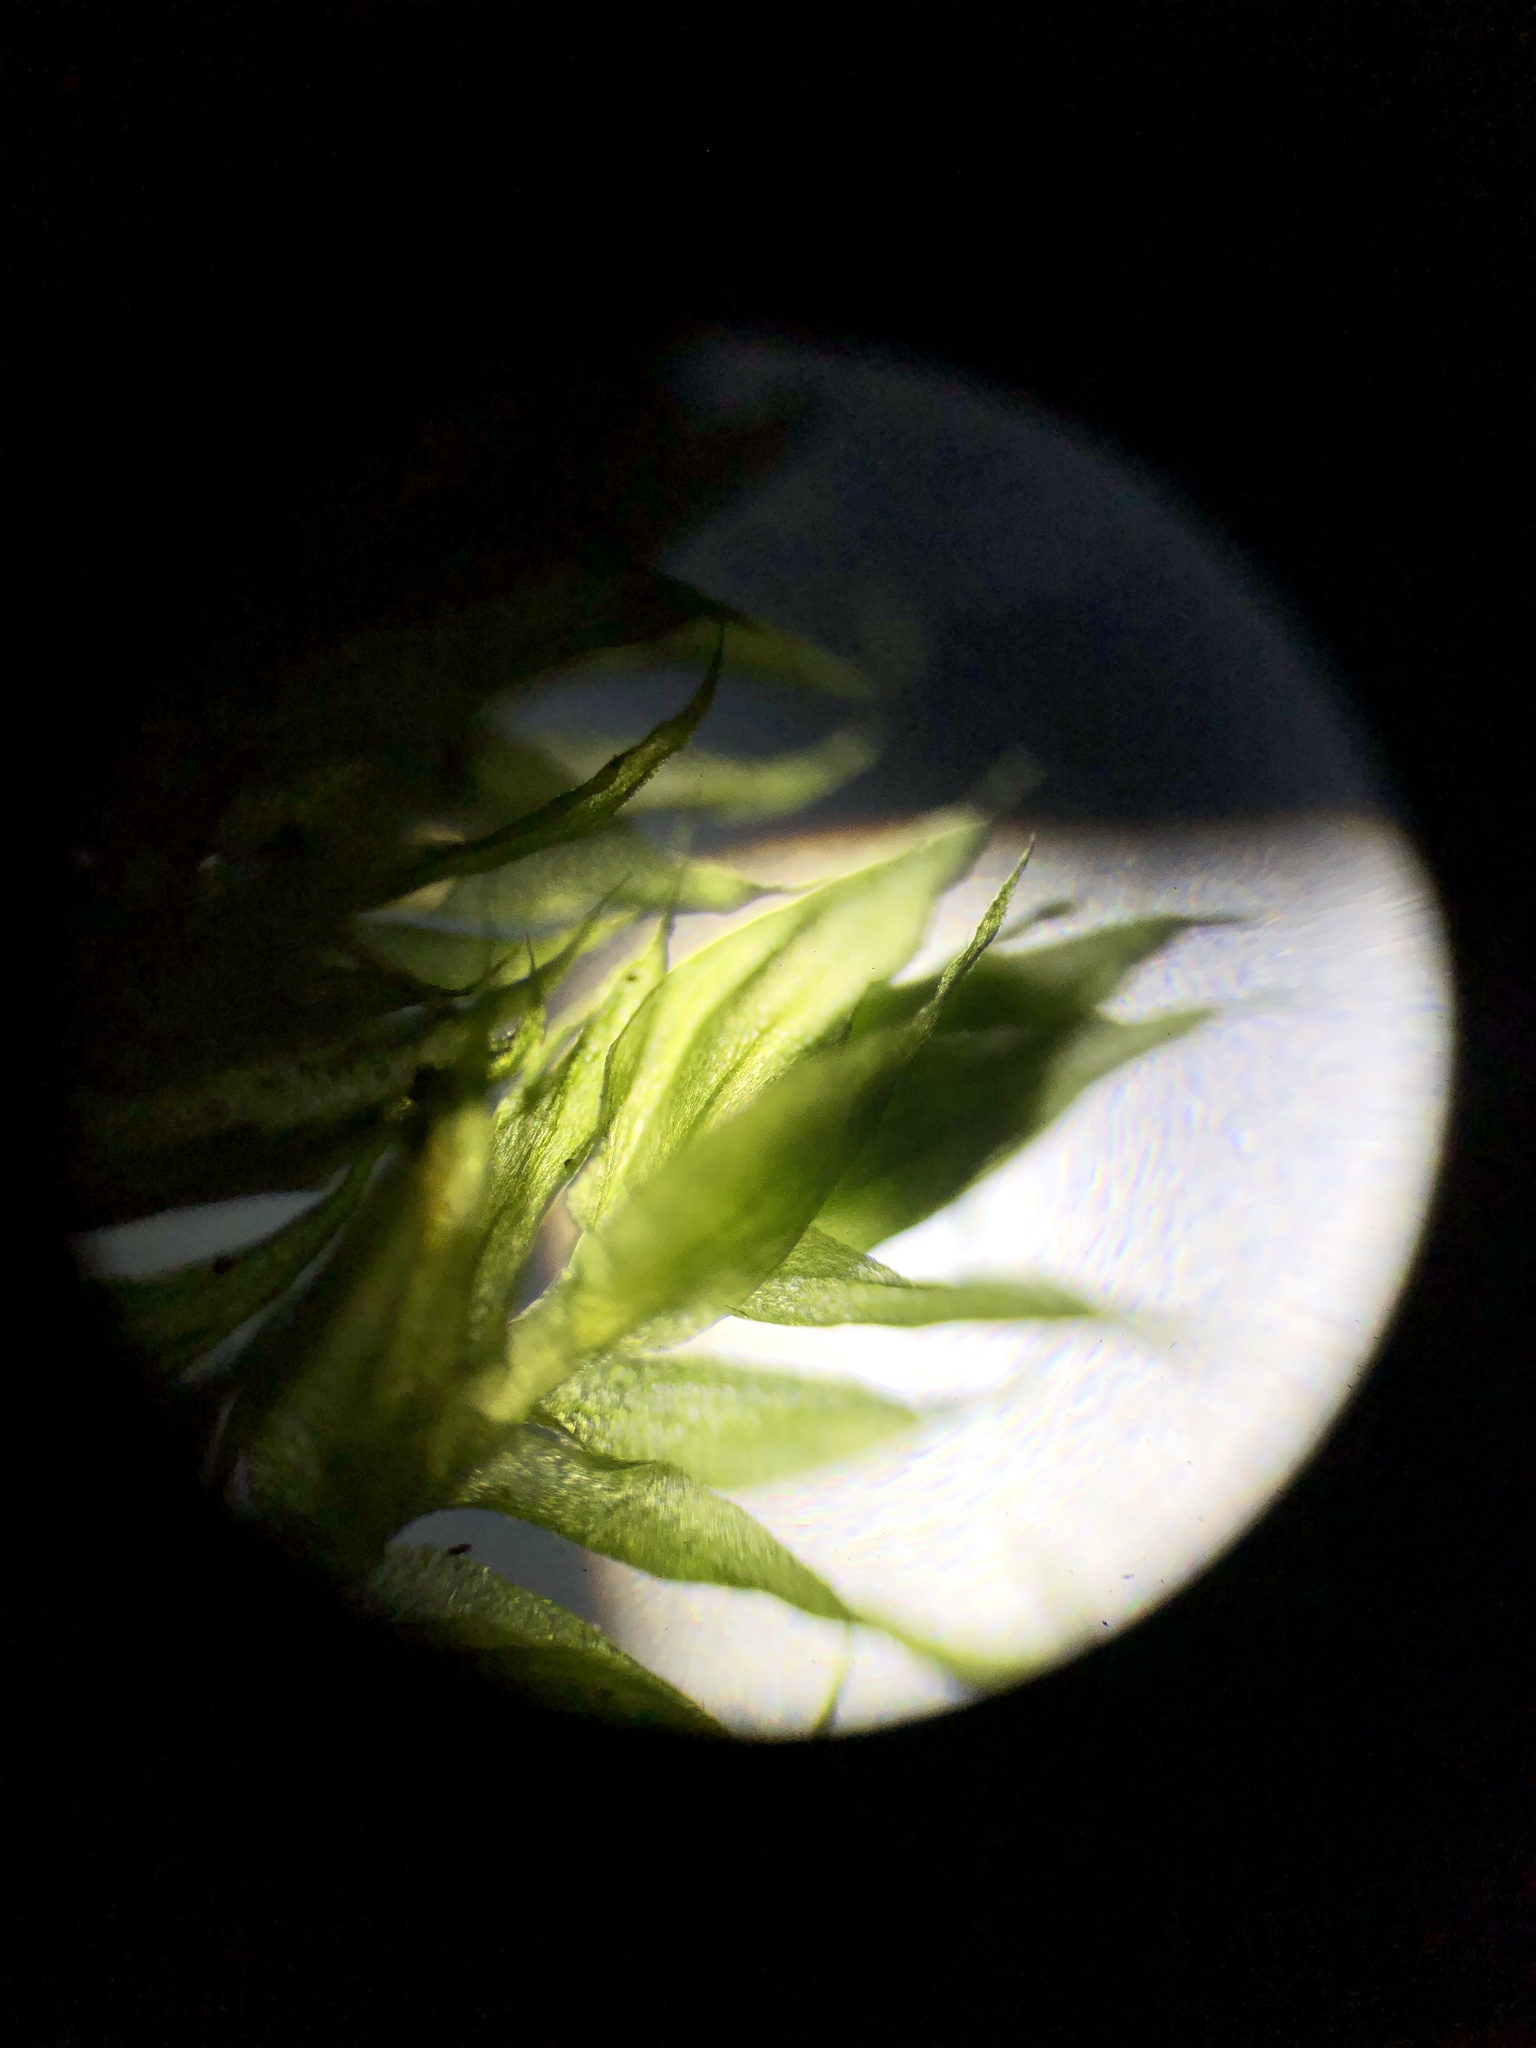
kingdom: Plantae
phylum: Bryophyta
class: Bryopsida
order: Hypnales
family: Brachytheciaceae
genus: Brachythecium
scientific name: Brachythecium rutabulum
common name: Rough-stalked feather-moss
